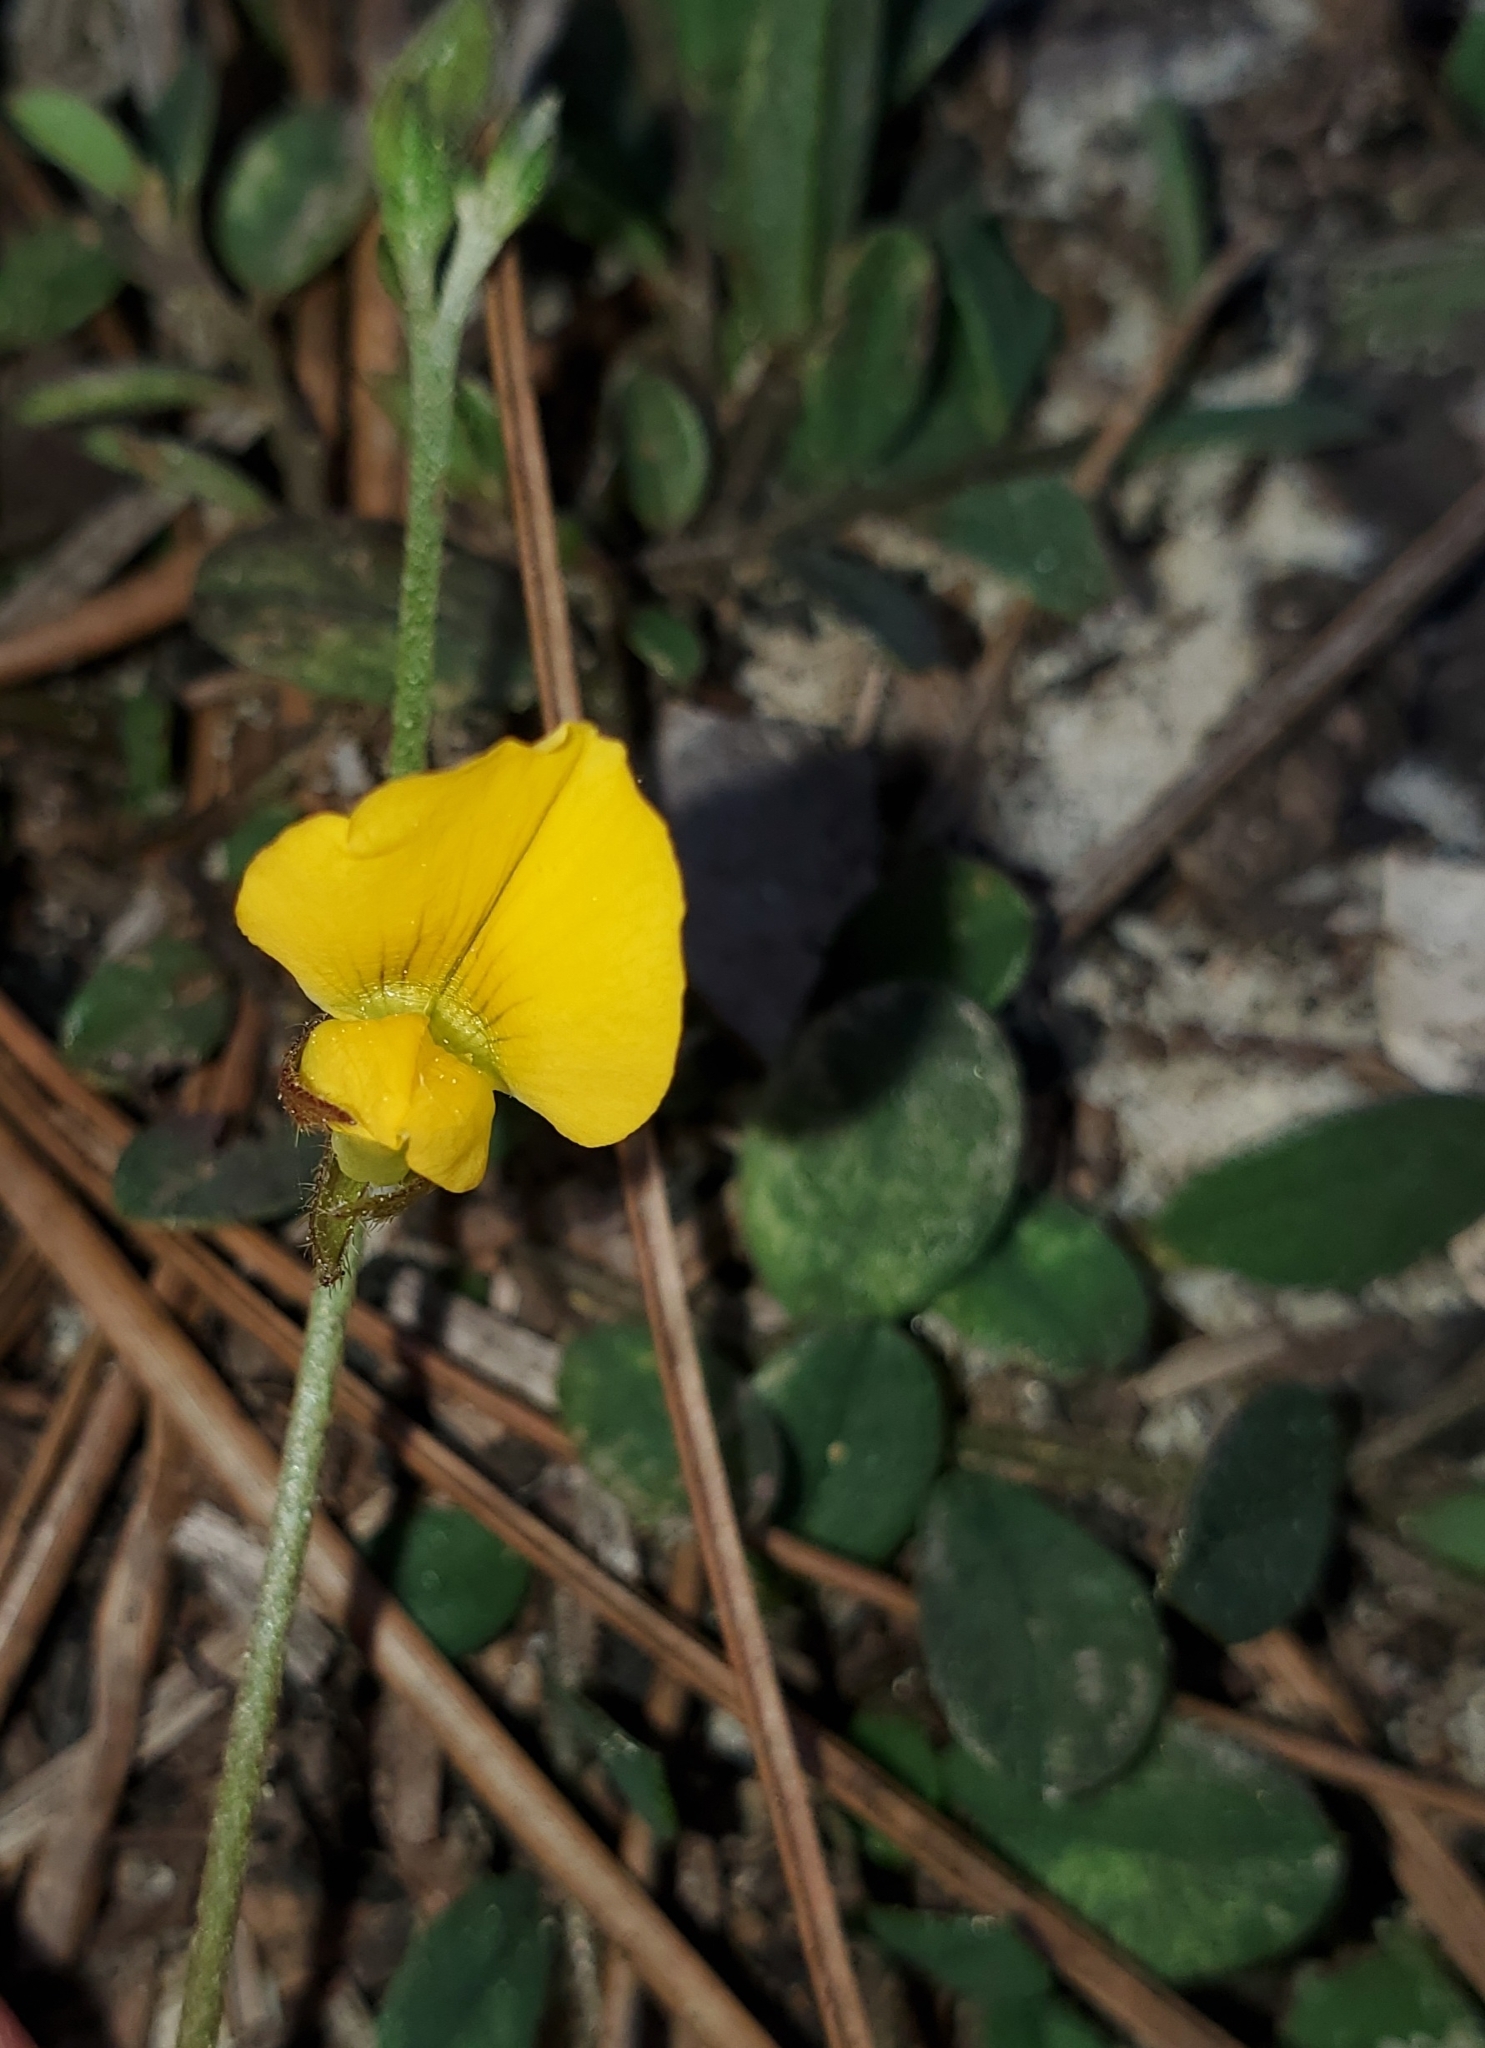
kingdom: Plantae
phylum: Tracheophyta
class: Magnoliopsida
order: Fabales
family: Fabaceae
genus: Crotalaria
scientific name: Crotalaria rotundifolia
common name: Prostrate rattlebox
